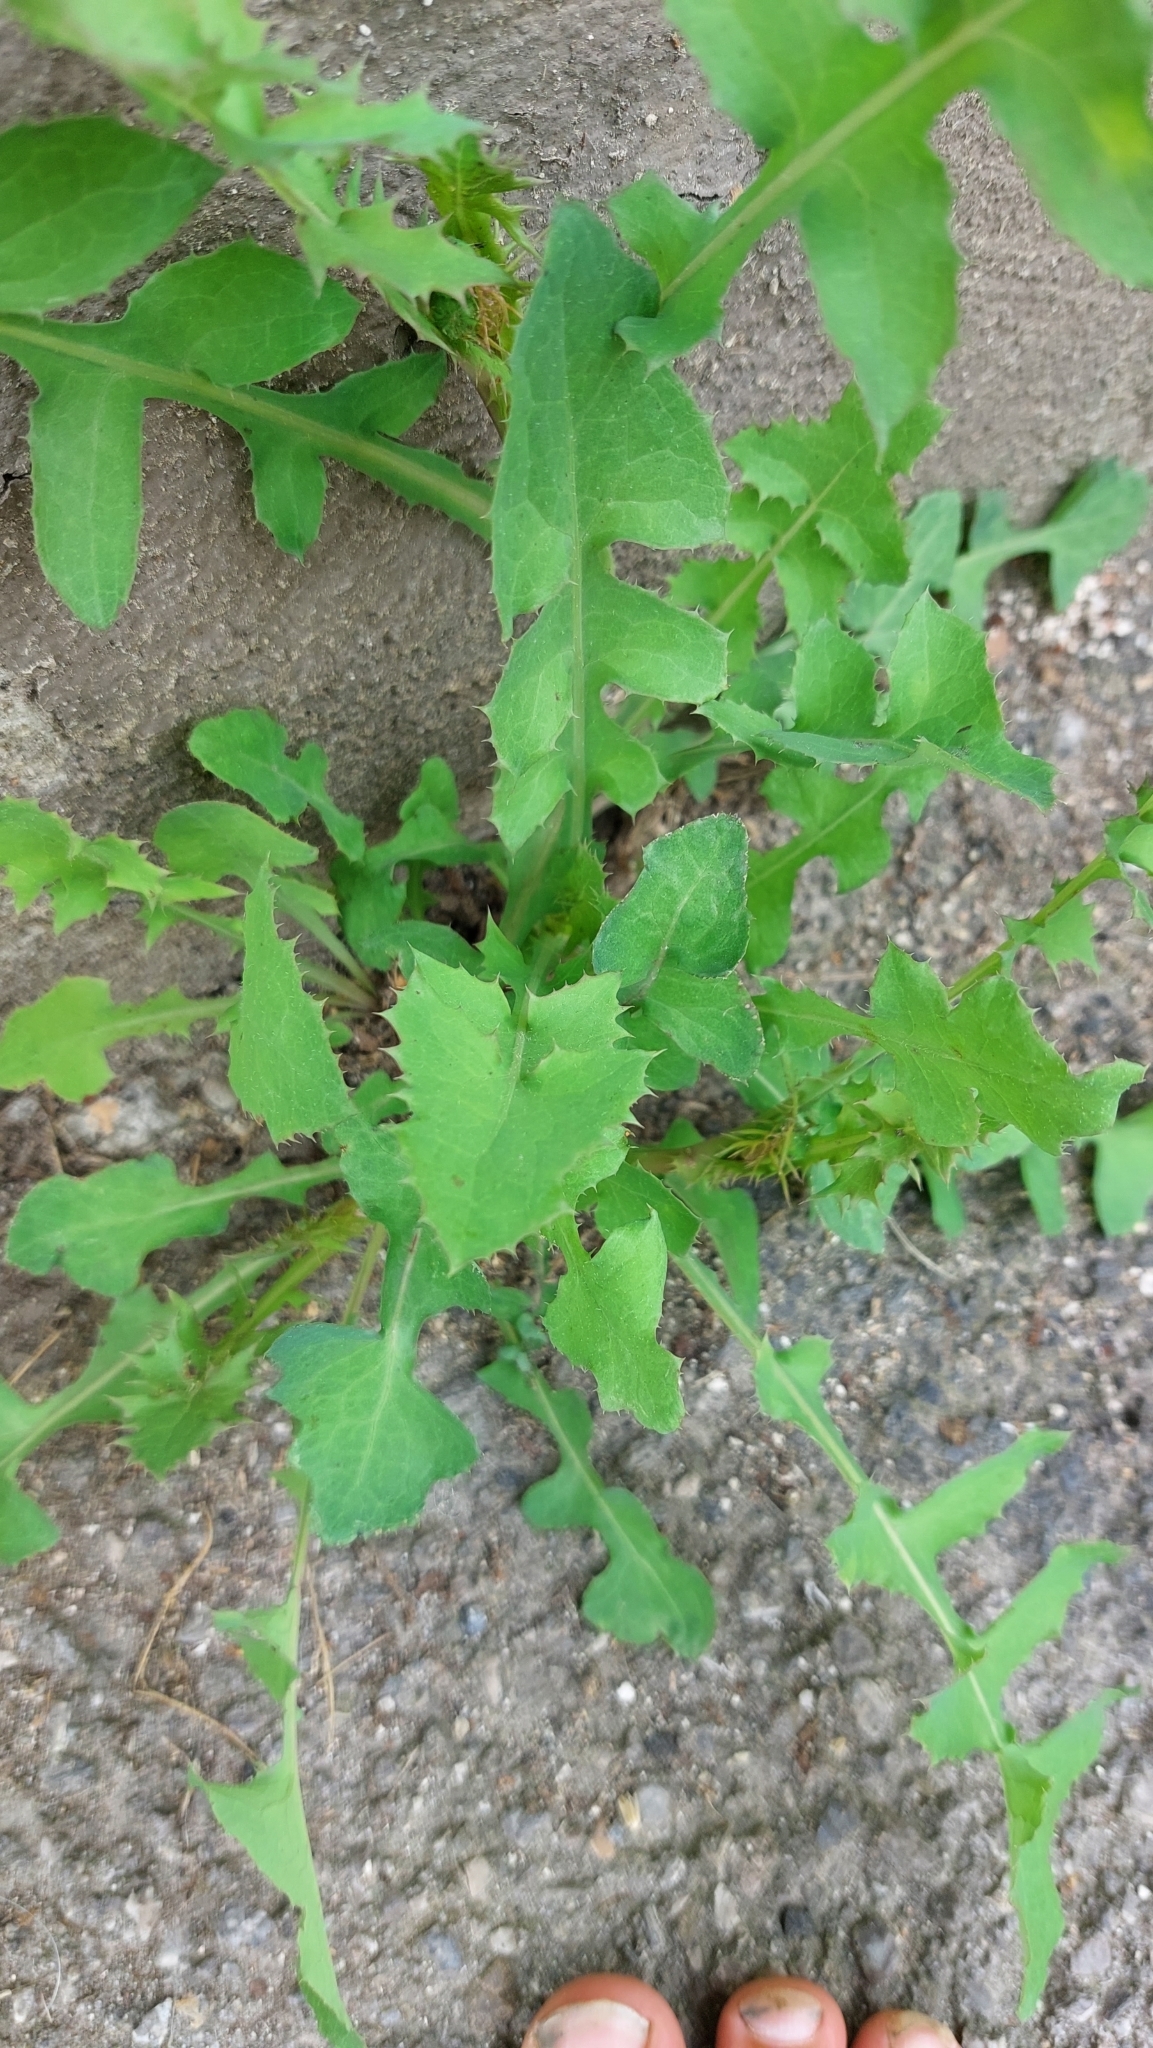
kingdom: Plantae
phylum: Tracheophyta
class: Magnoliopsida
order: Asterales
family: Asteraceae
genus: Sonchus
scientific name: Sonchus oleraceus
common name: Common sowthistle
